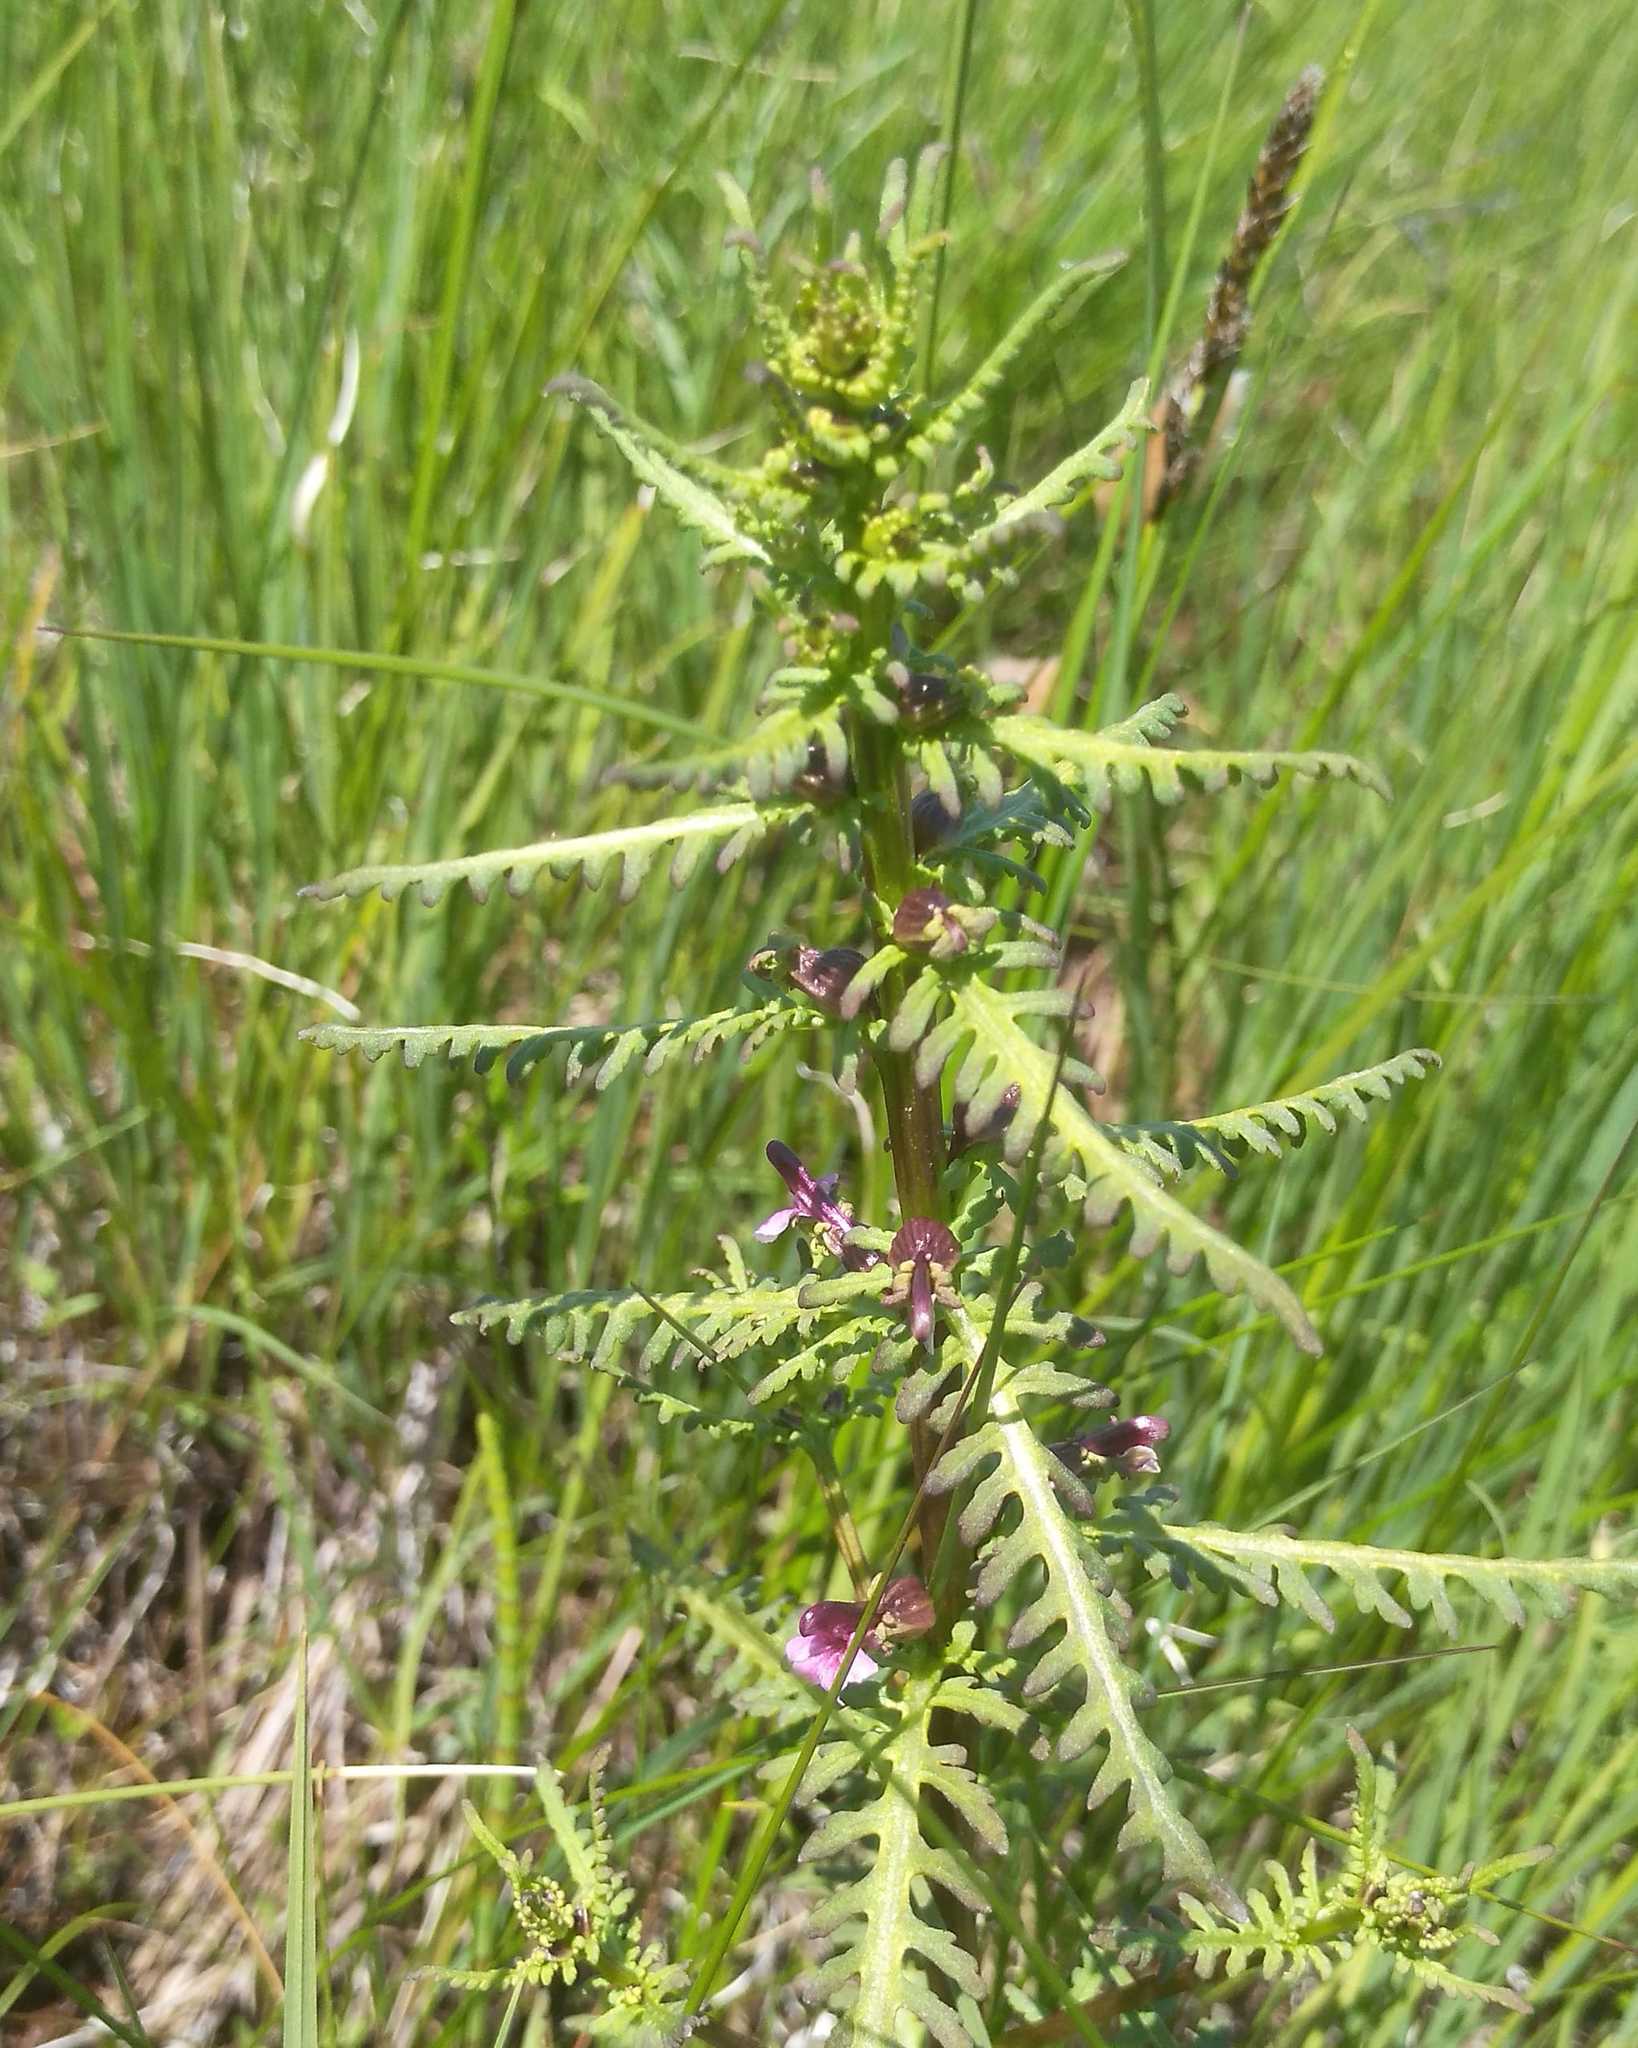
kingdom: Plantae
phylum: Tracheophyta
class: Magnoliopsida
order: Lamiales
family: Orobanchaceae
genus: Pedicularis
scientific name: Pedicularis karoi
